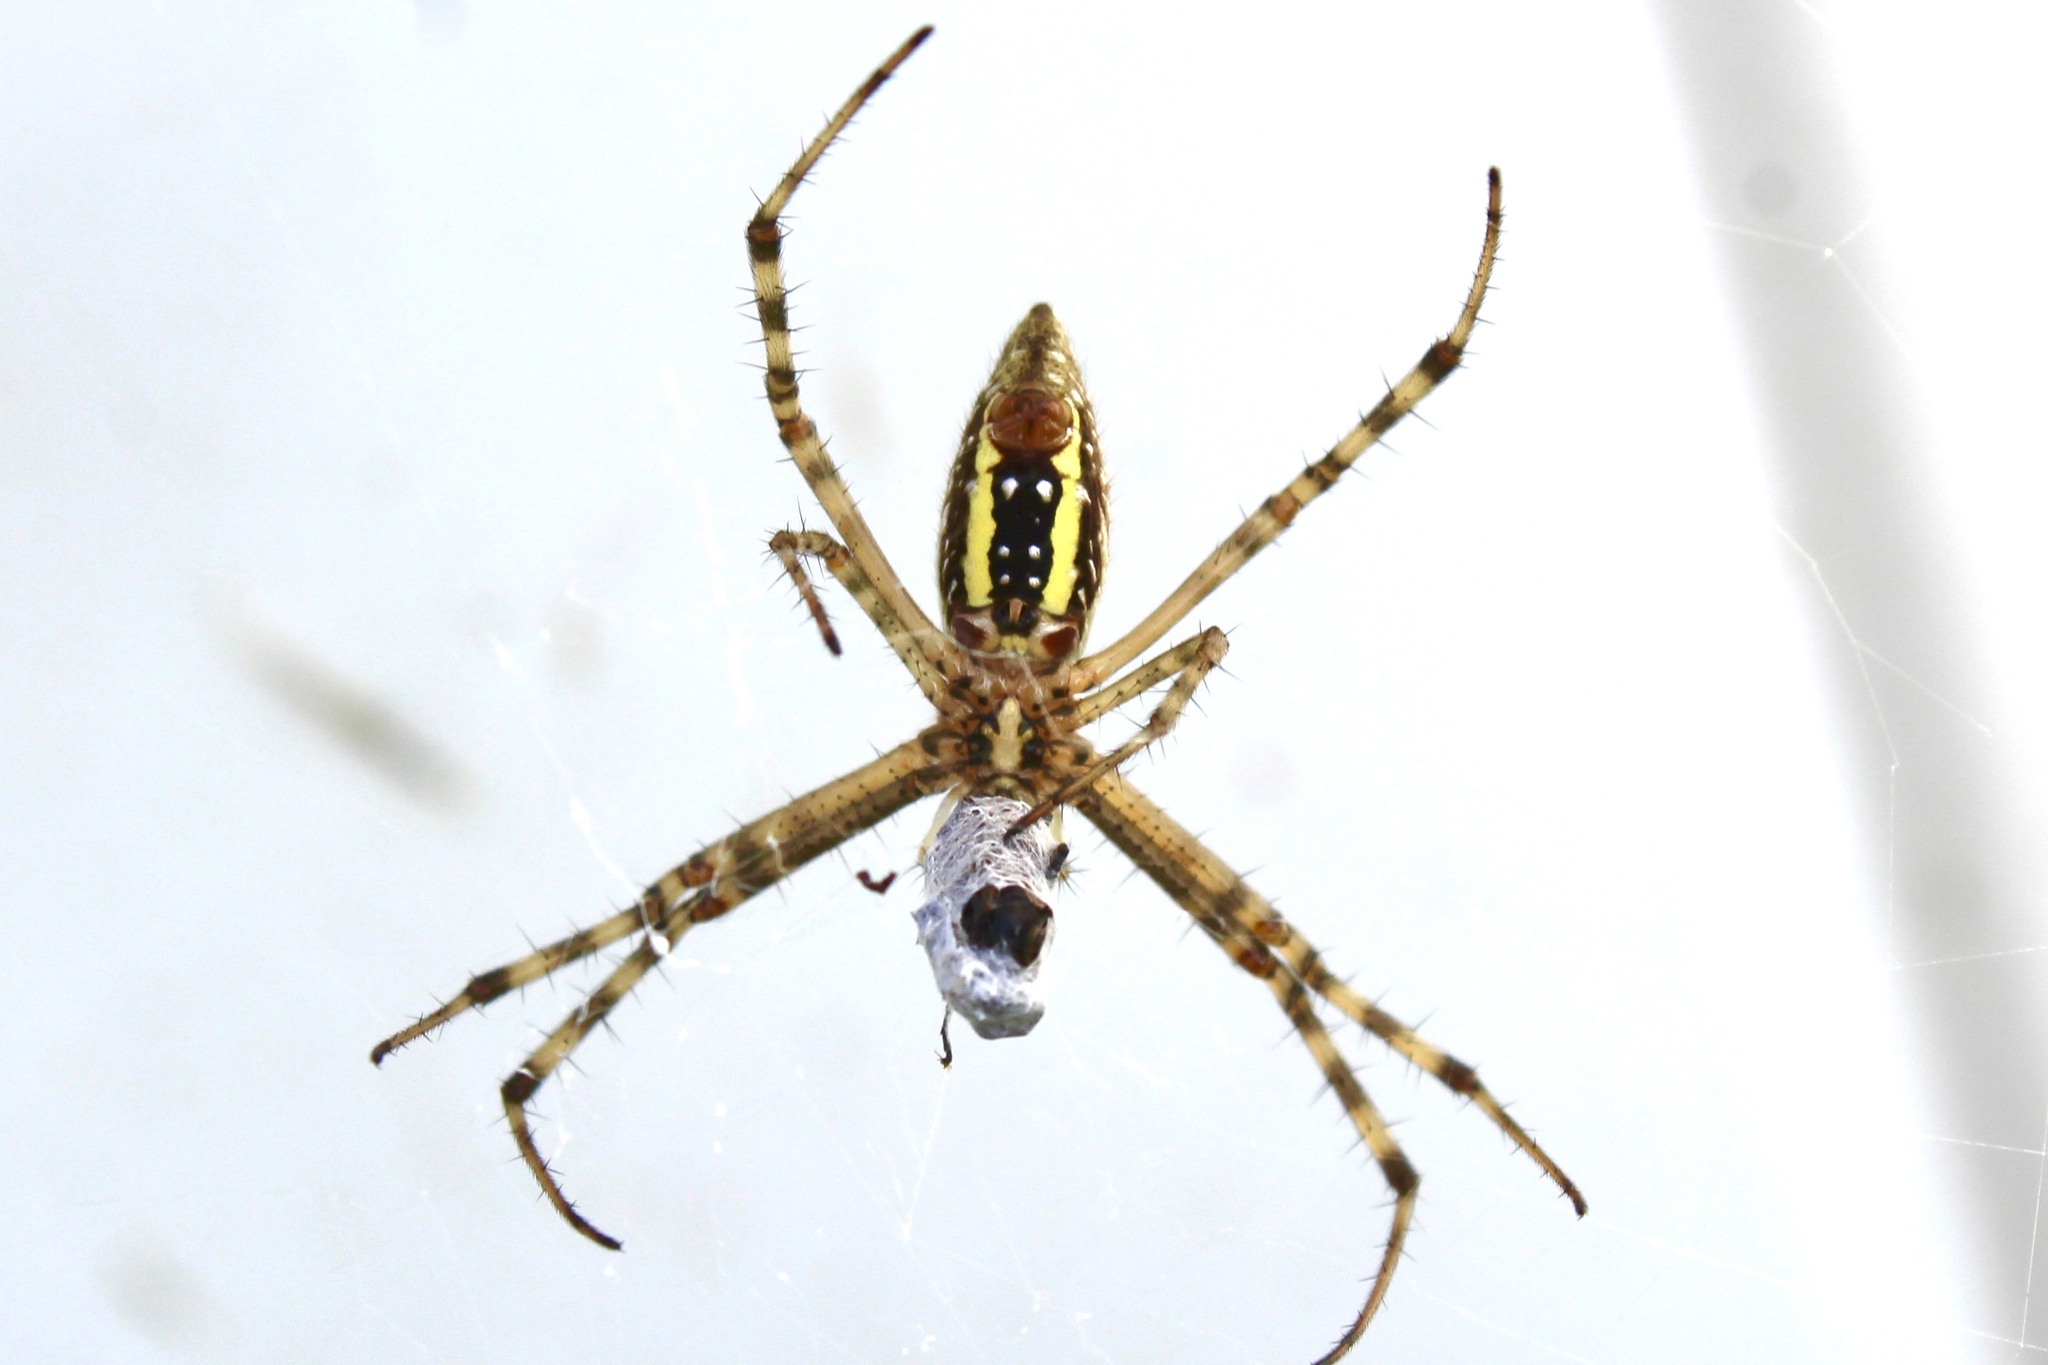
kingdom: Animalia
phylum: Arthropoda
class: Arachnida
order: Araneae
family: Araneidae
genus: Argiope
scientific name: Argiope trifasciata
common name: Banded garden spider
